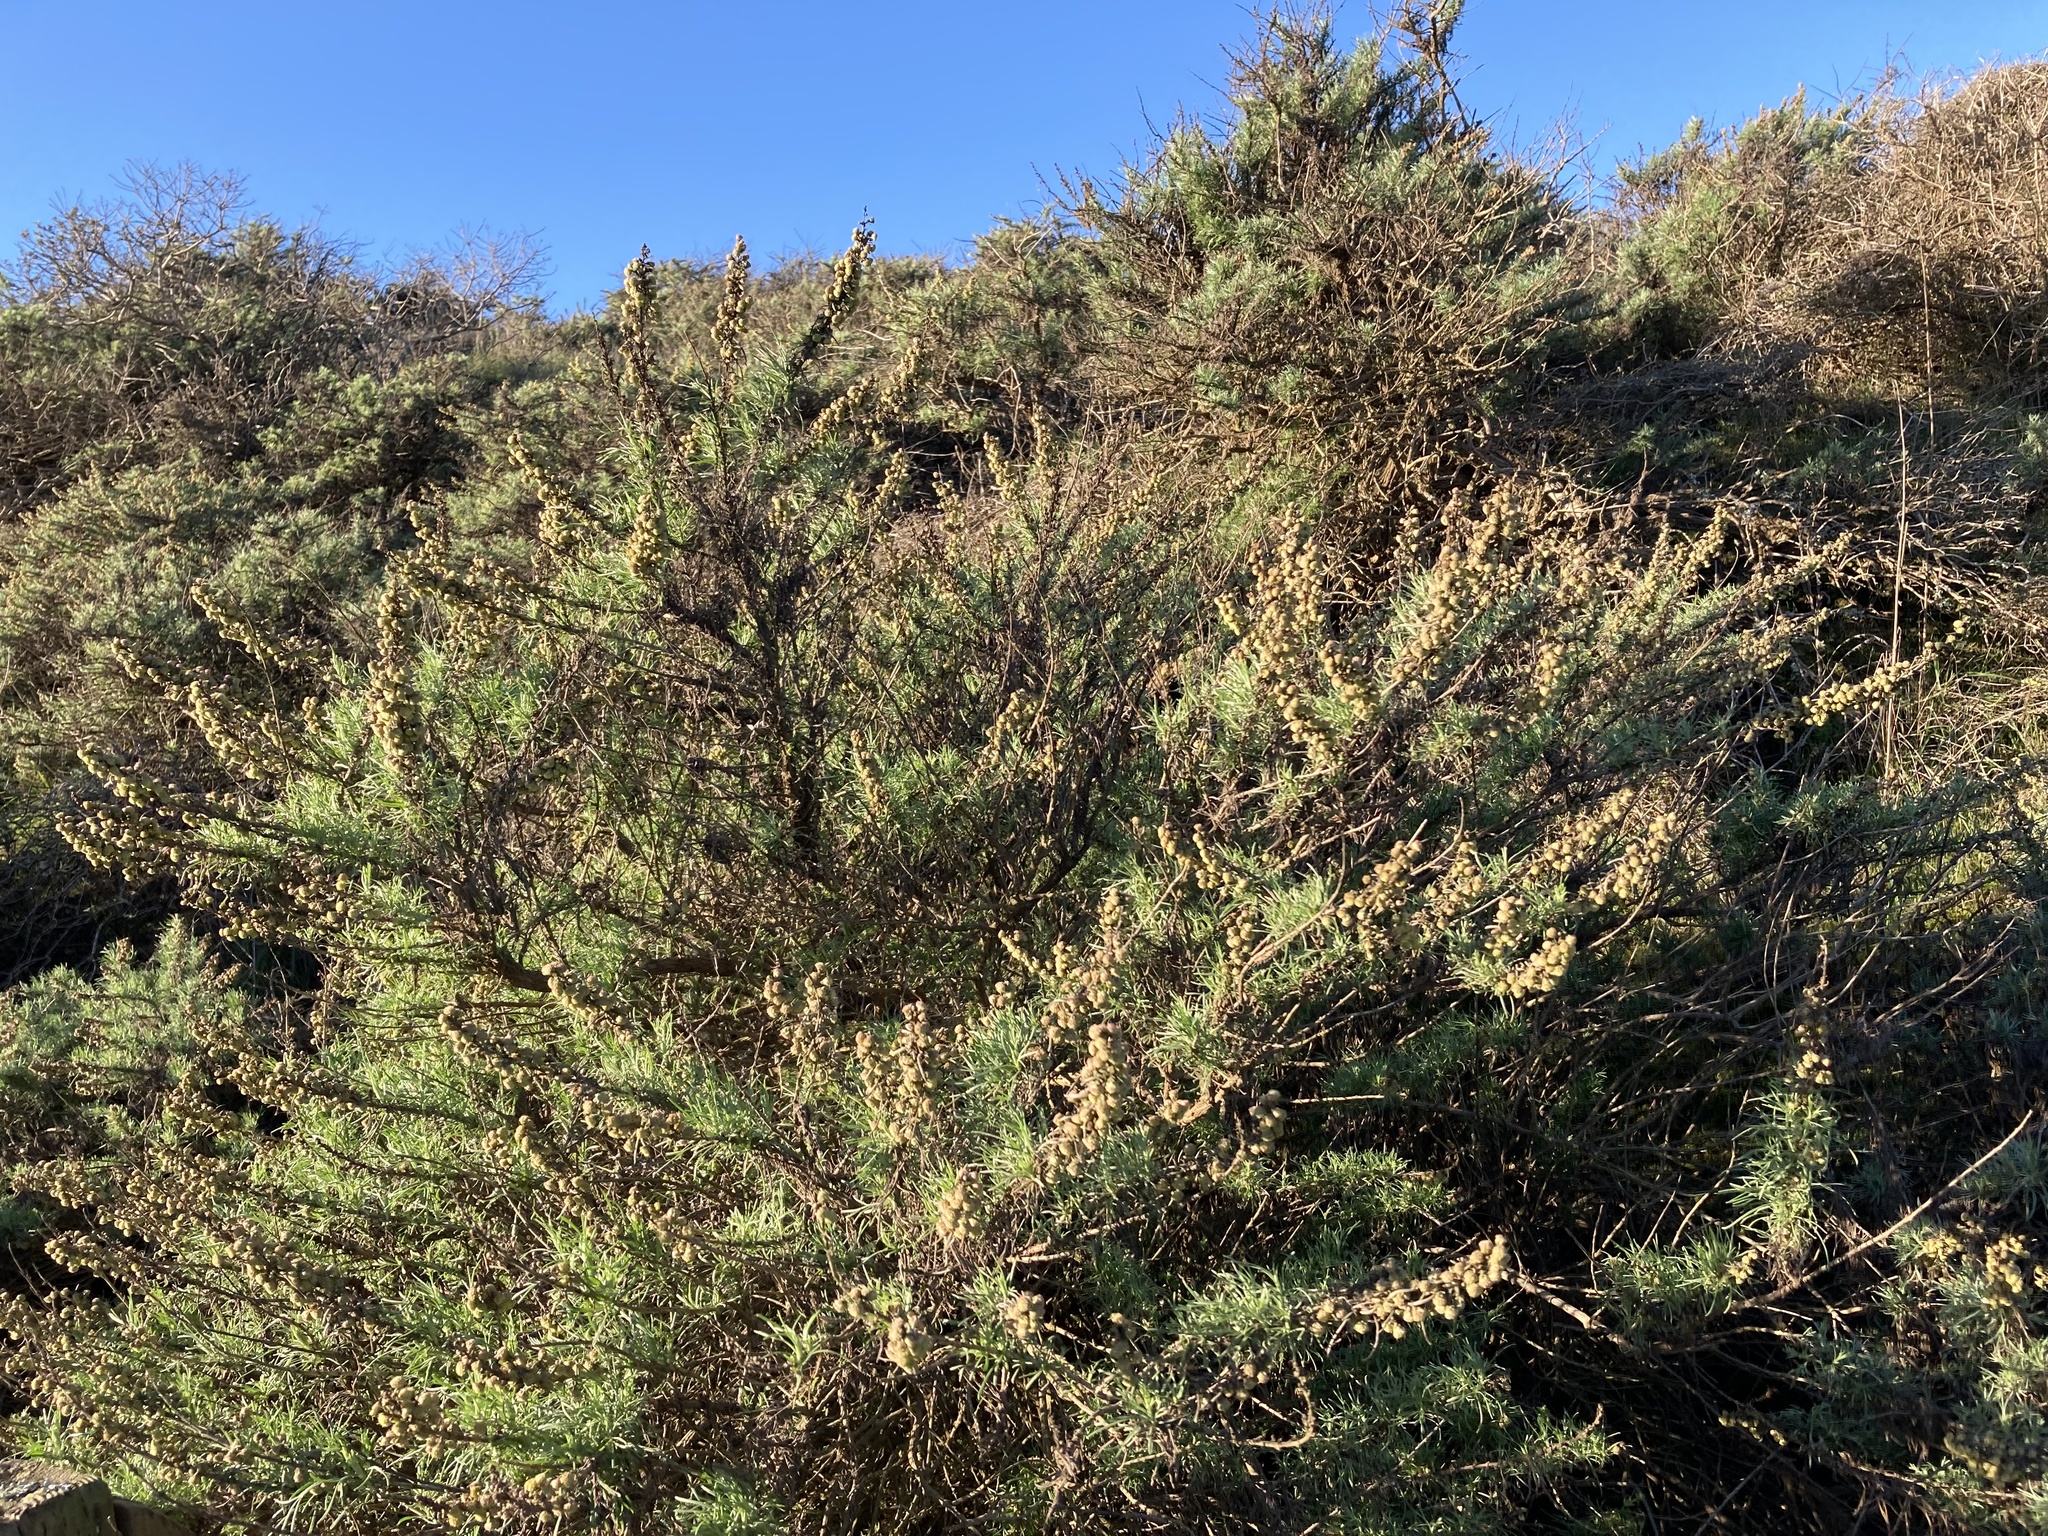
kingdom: Plantae
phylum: Tracheophyta
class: Magnoliopsida
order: Asterales
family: Asteraceae
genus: Artemisia
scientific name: Artemisia californica
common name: California sagebrush
